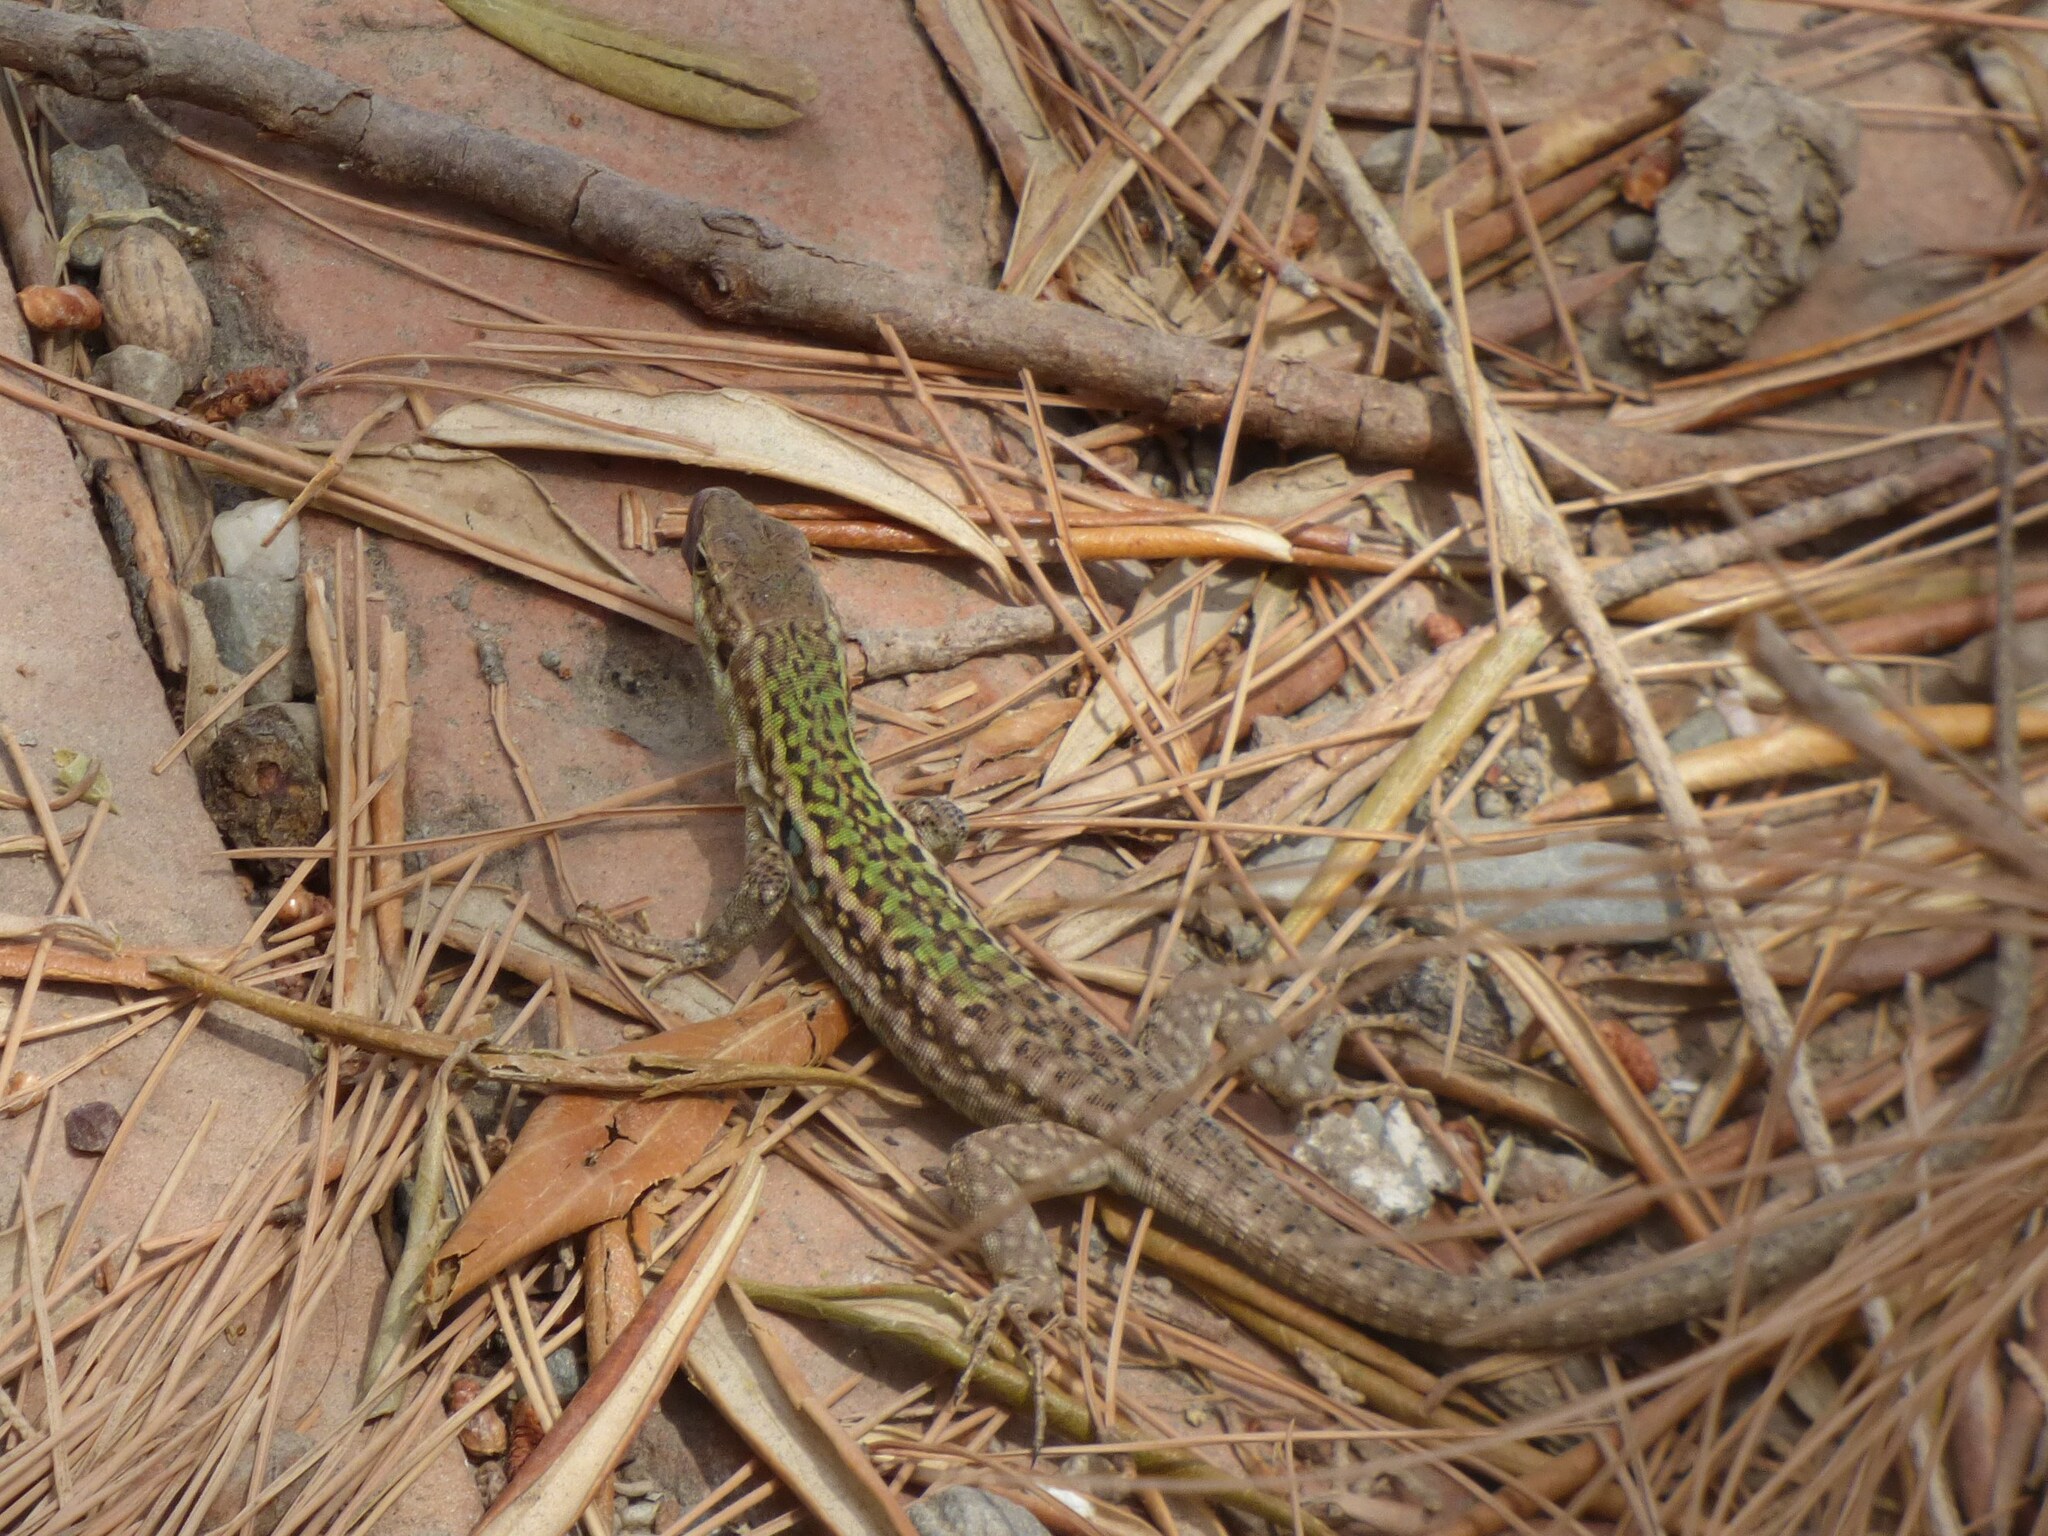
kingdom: Animalia
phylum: Chordata
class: Squamata
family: Lacertidae
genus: Podarcis
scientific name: Podarcis siculus
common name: Italian wall lizard
